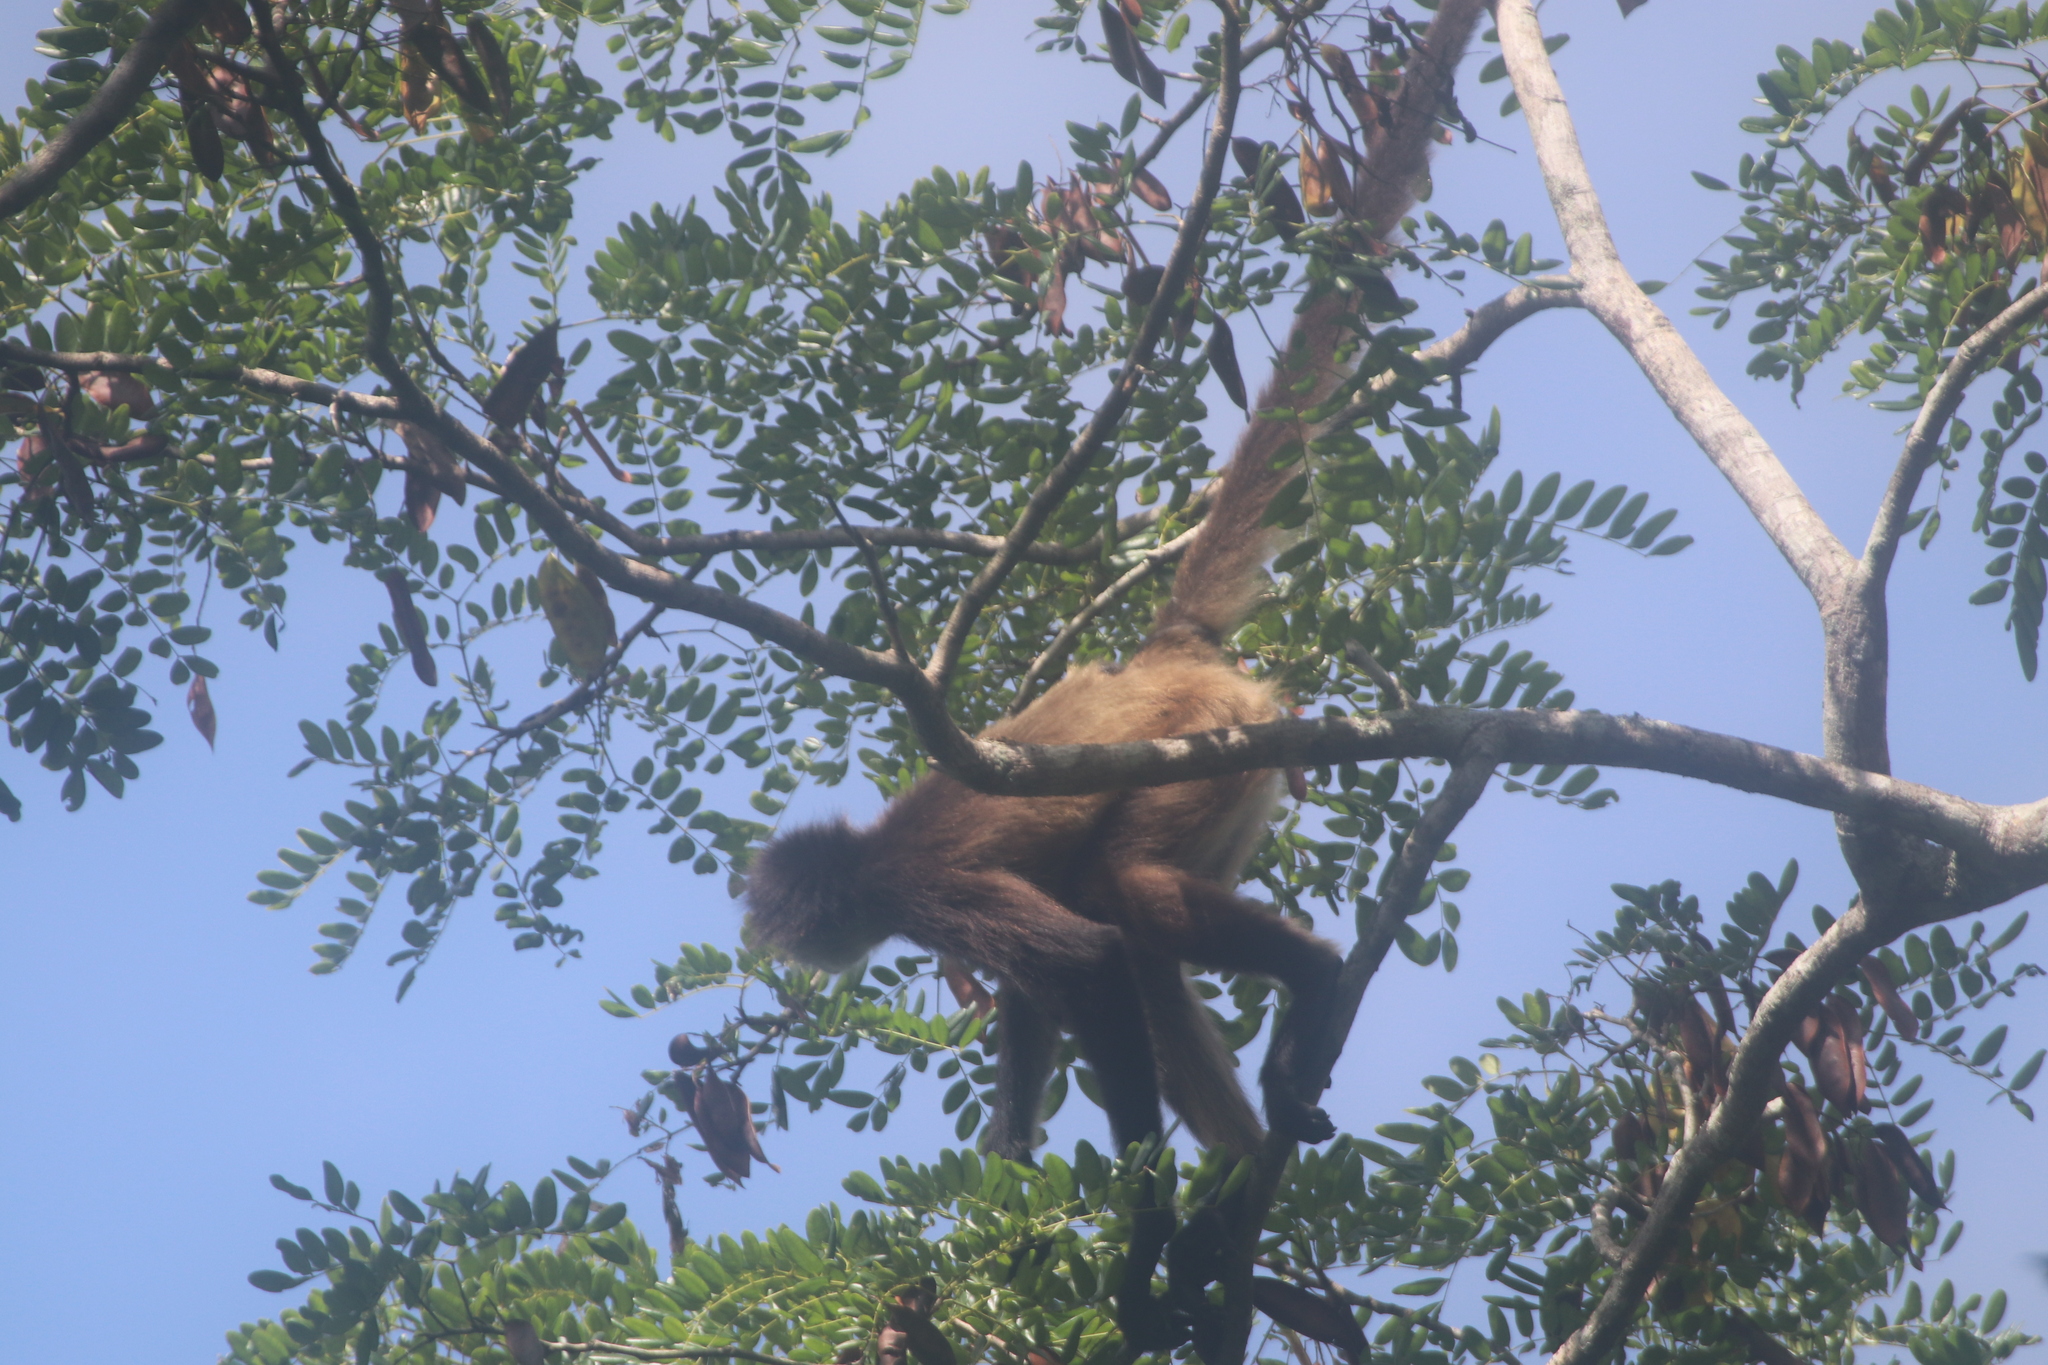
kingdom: Animalia
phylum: Chordata
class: Mammalia
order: Primates
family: Atelidae
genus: Ateles
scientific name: Ateles geoffroyi
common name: Black-handed spider monkey
